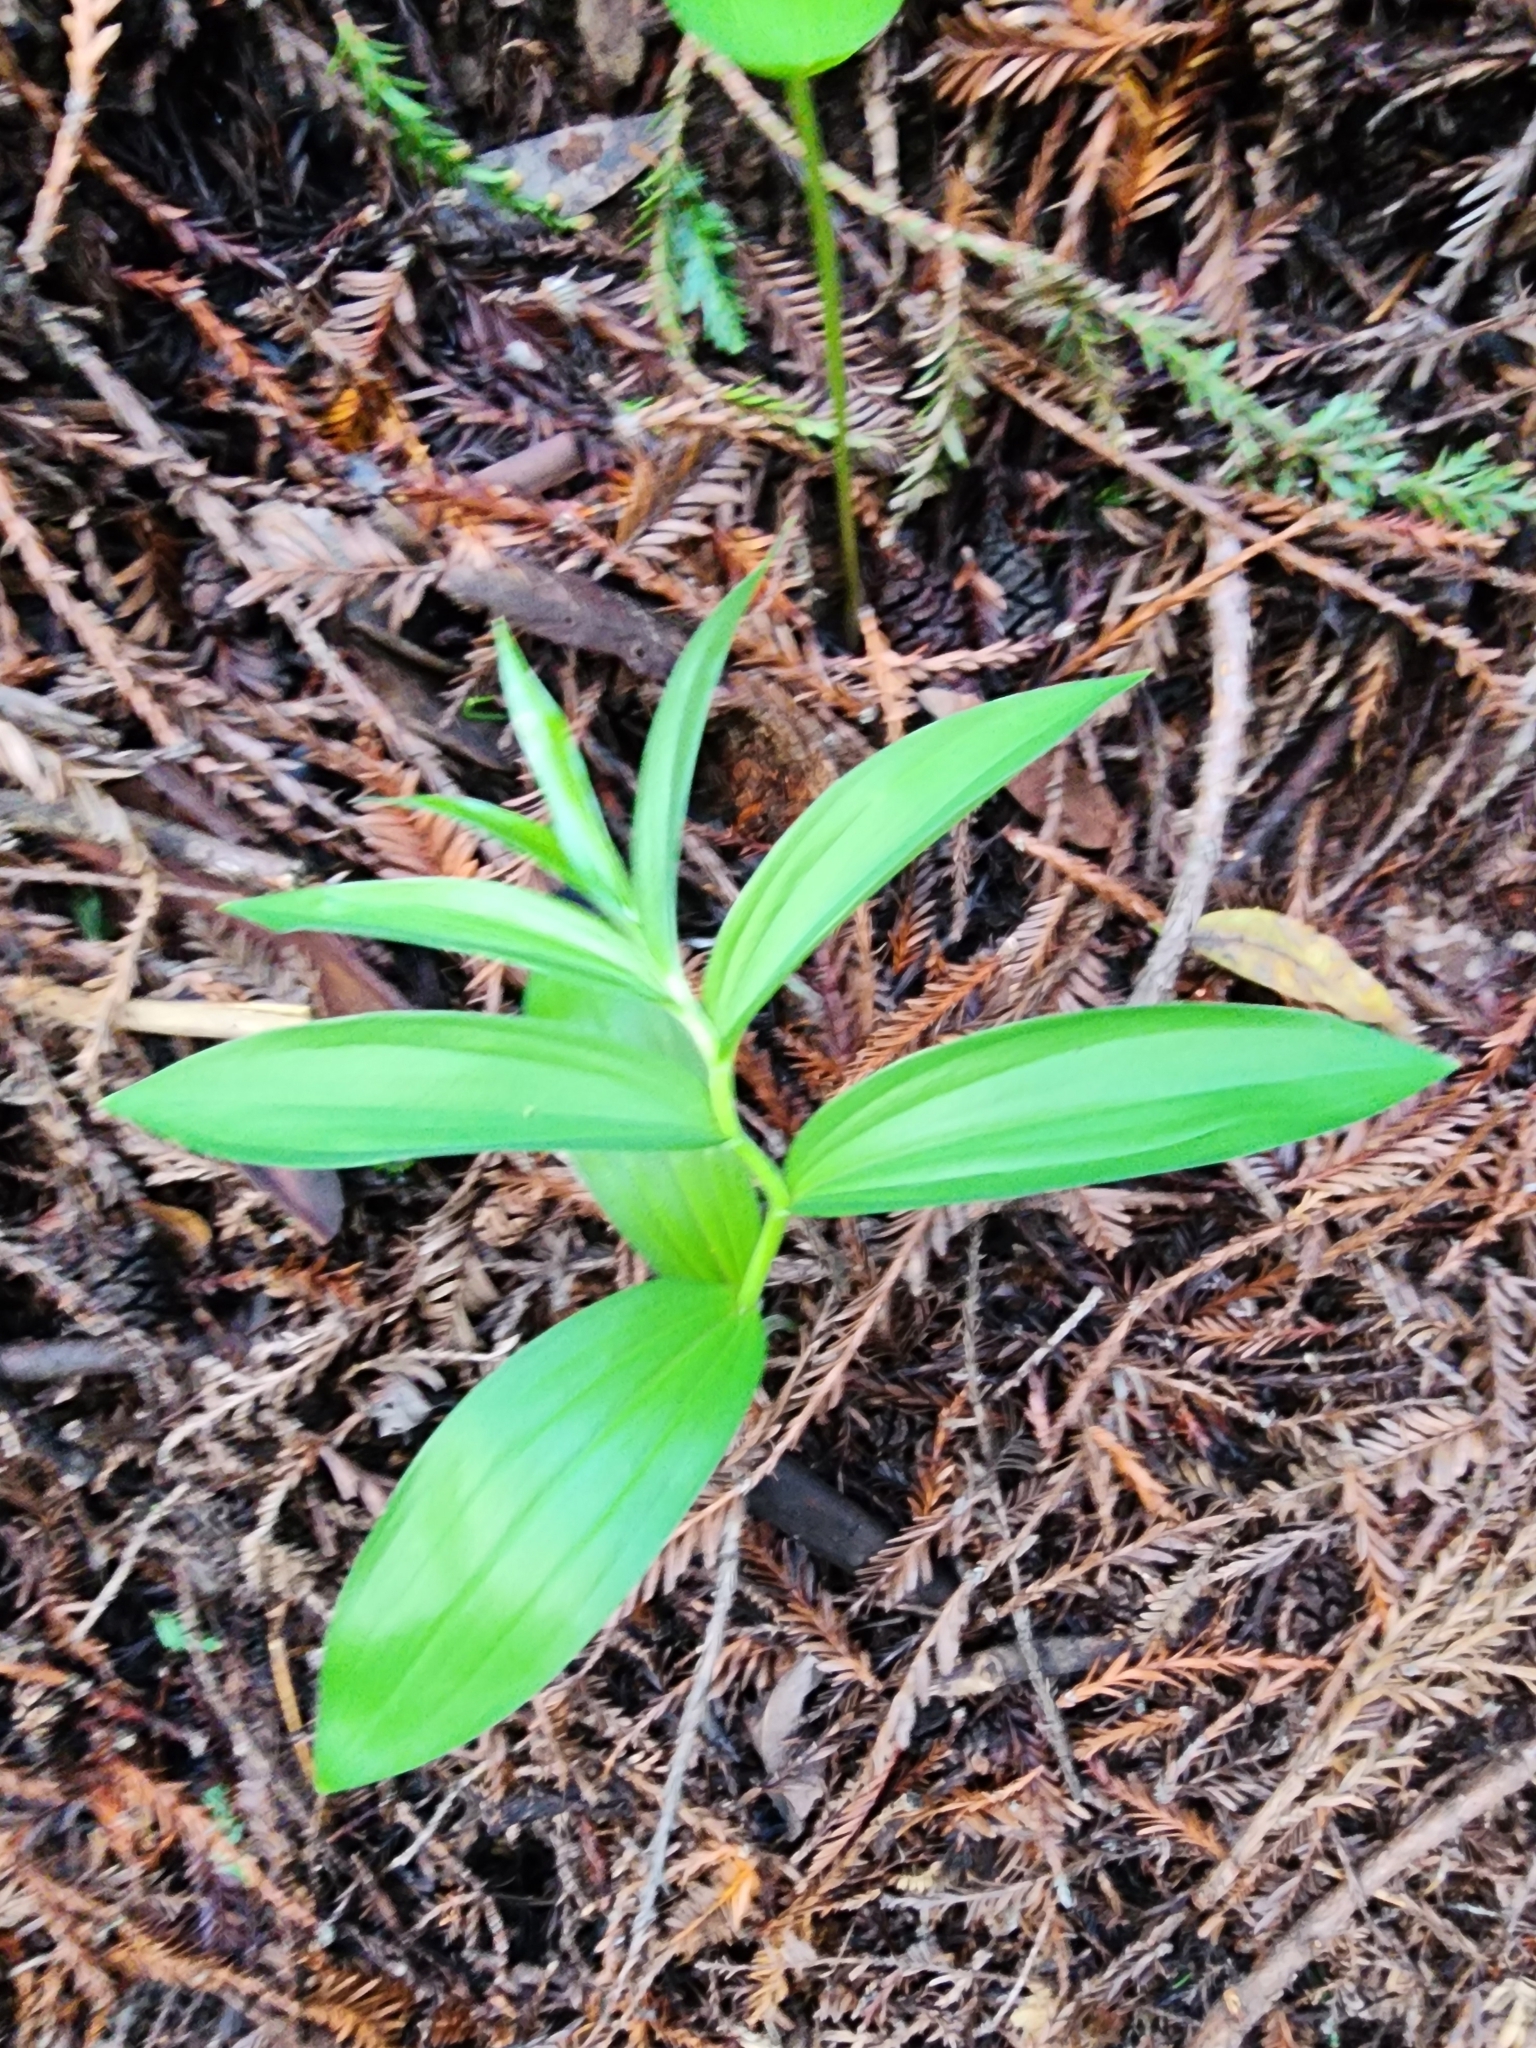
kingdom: Plantae
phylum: Tracheophyta
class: Liliopsida
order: Asparagales
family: Asparagaceae
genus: Maianthemum
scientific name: Maianthemum
